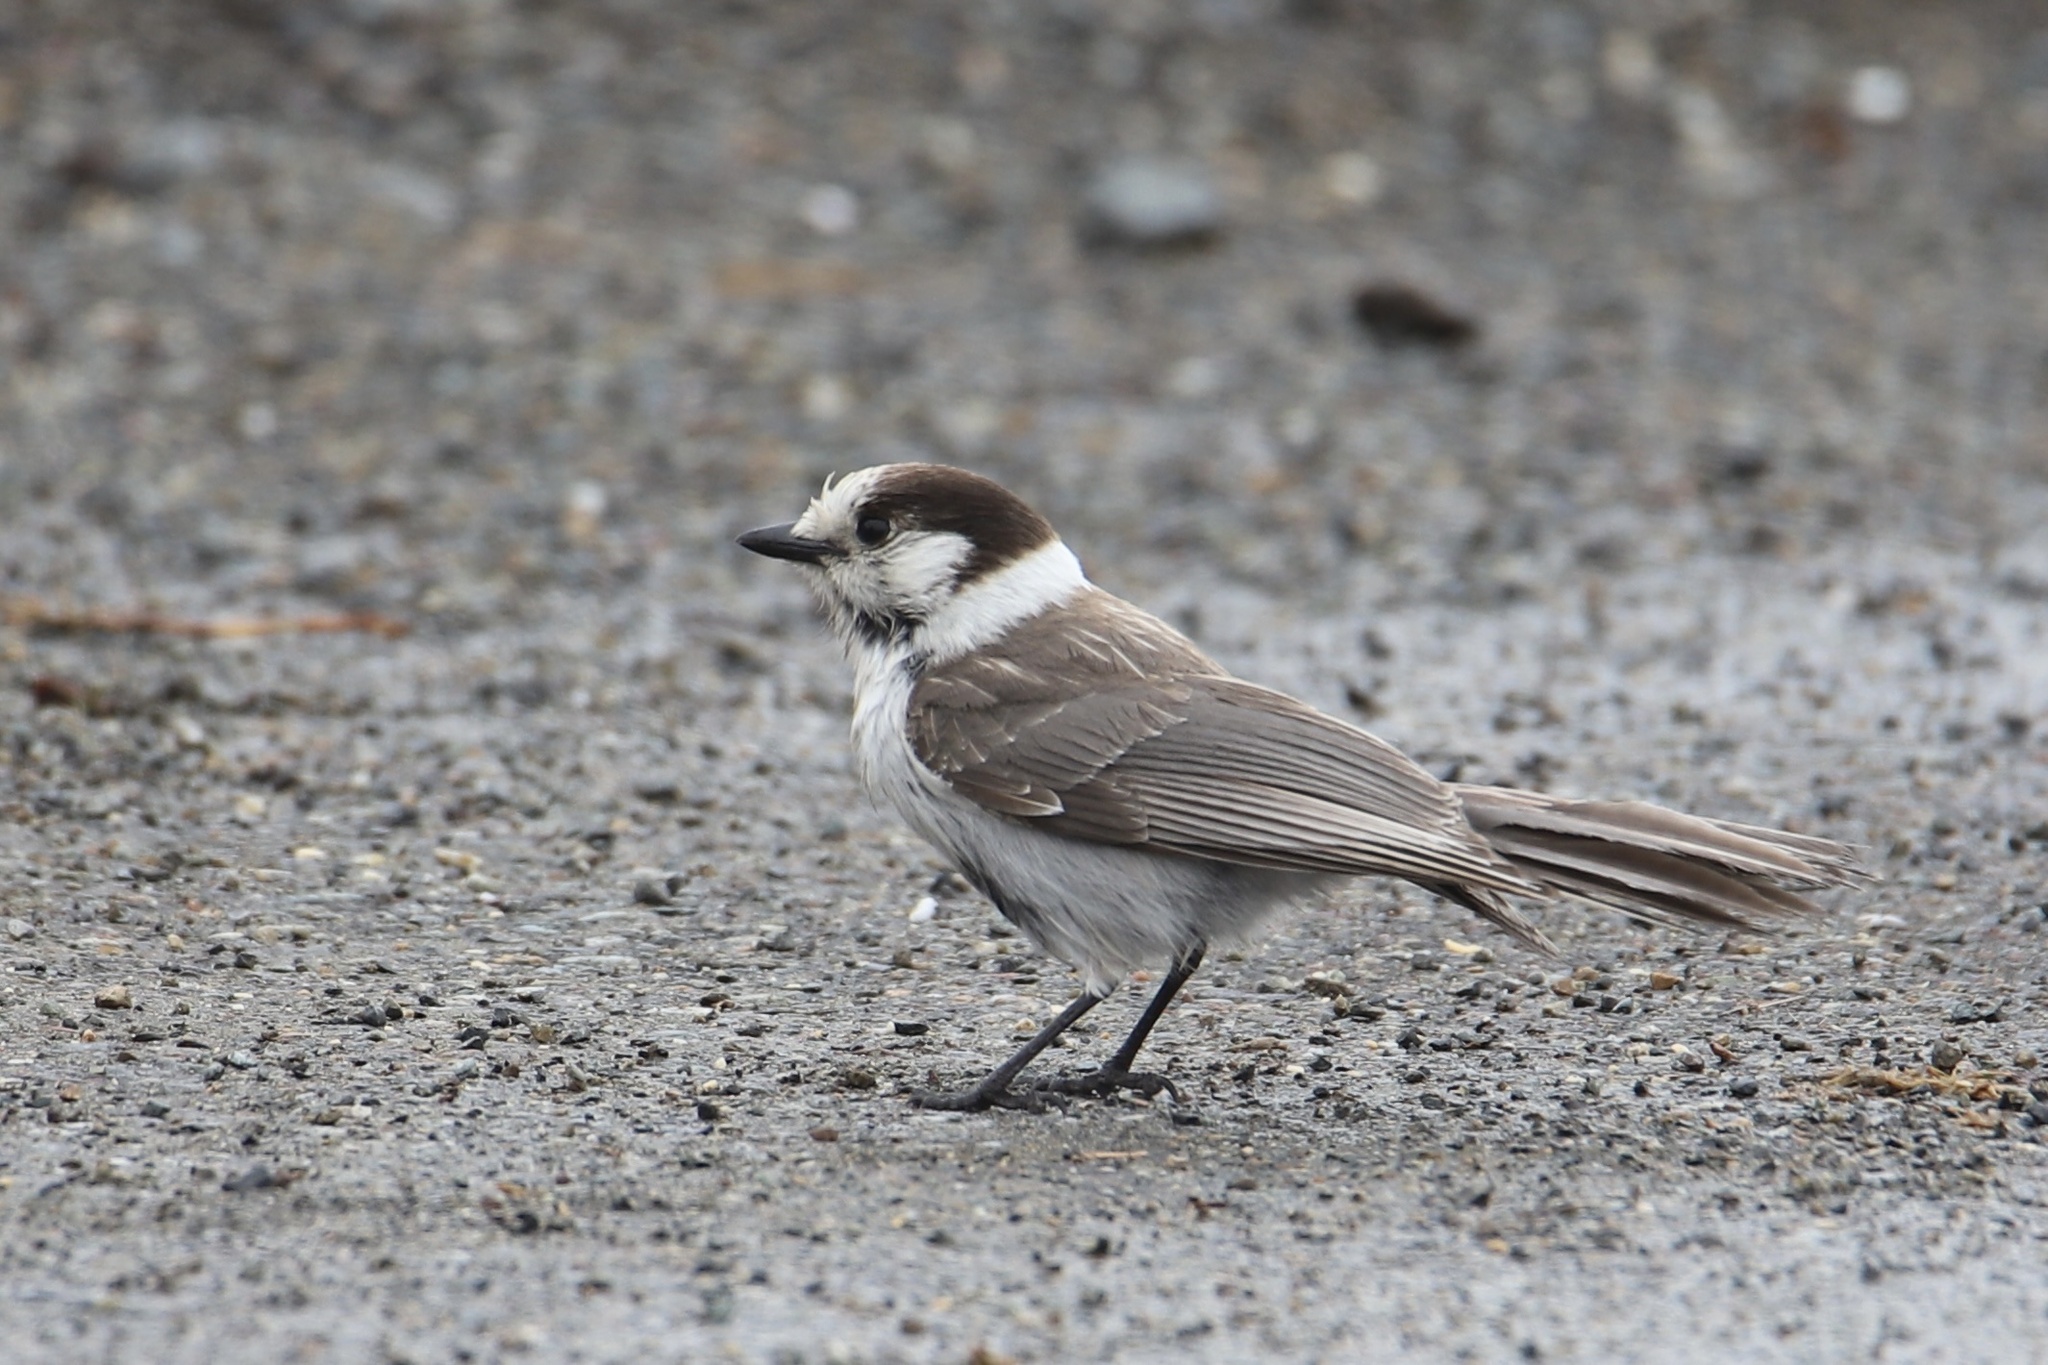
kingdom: Animalia
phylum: Chordata
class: Aves
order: Passeriformes
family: Corvidae
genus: Perisoreus
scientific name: Perisoreus canadensis
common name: Gray jay
